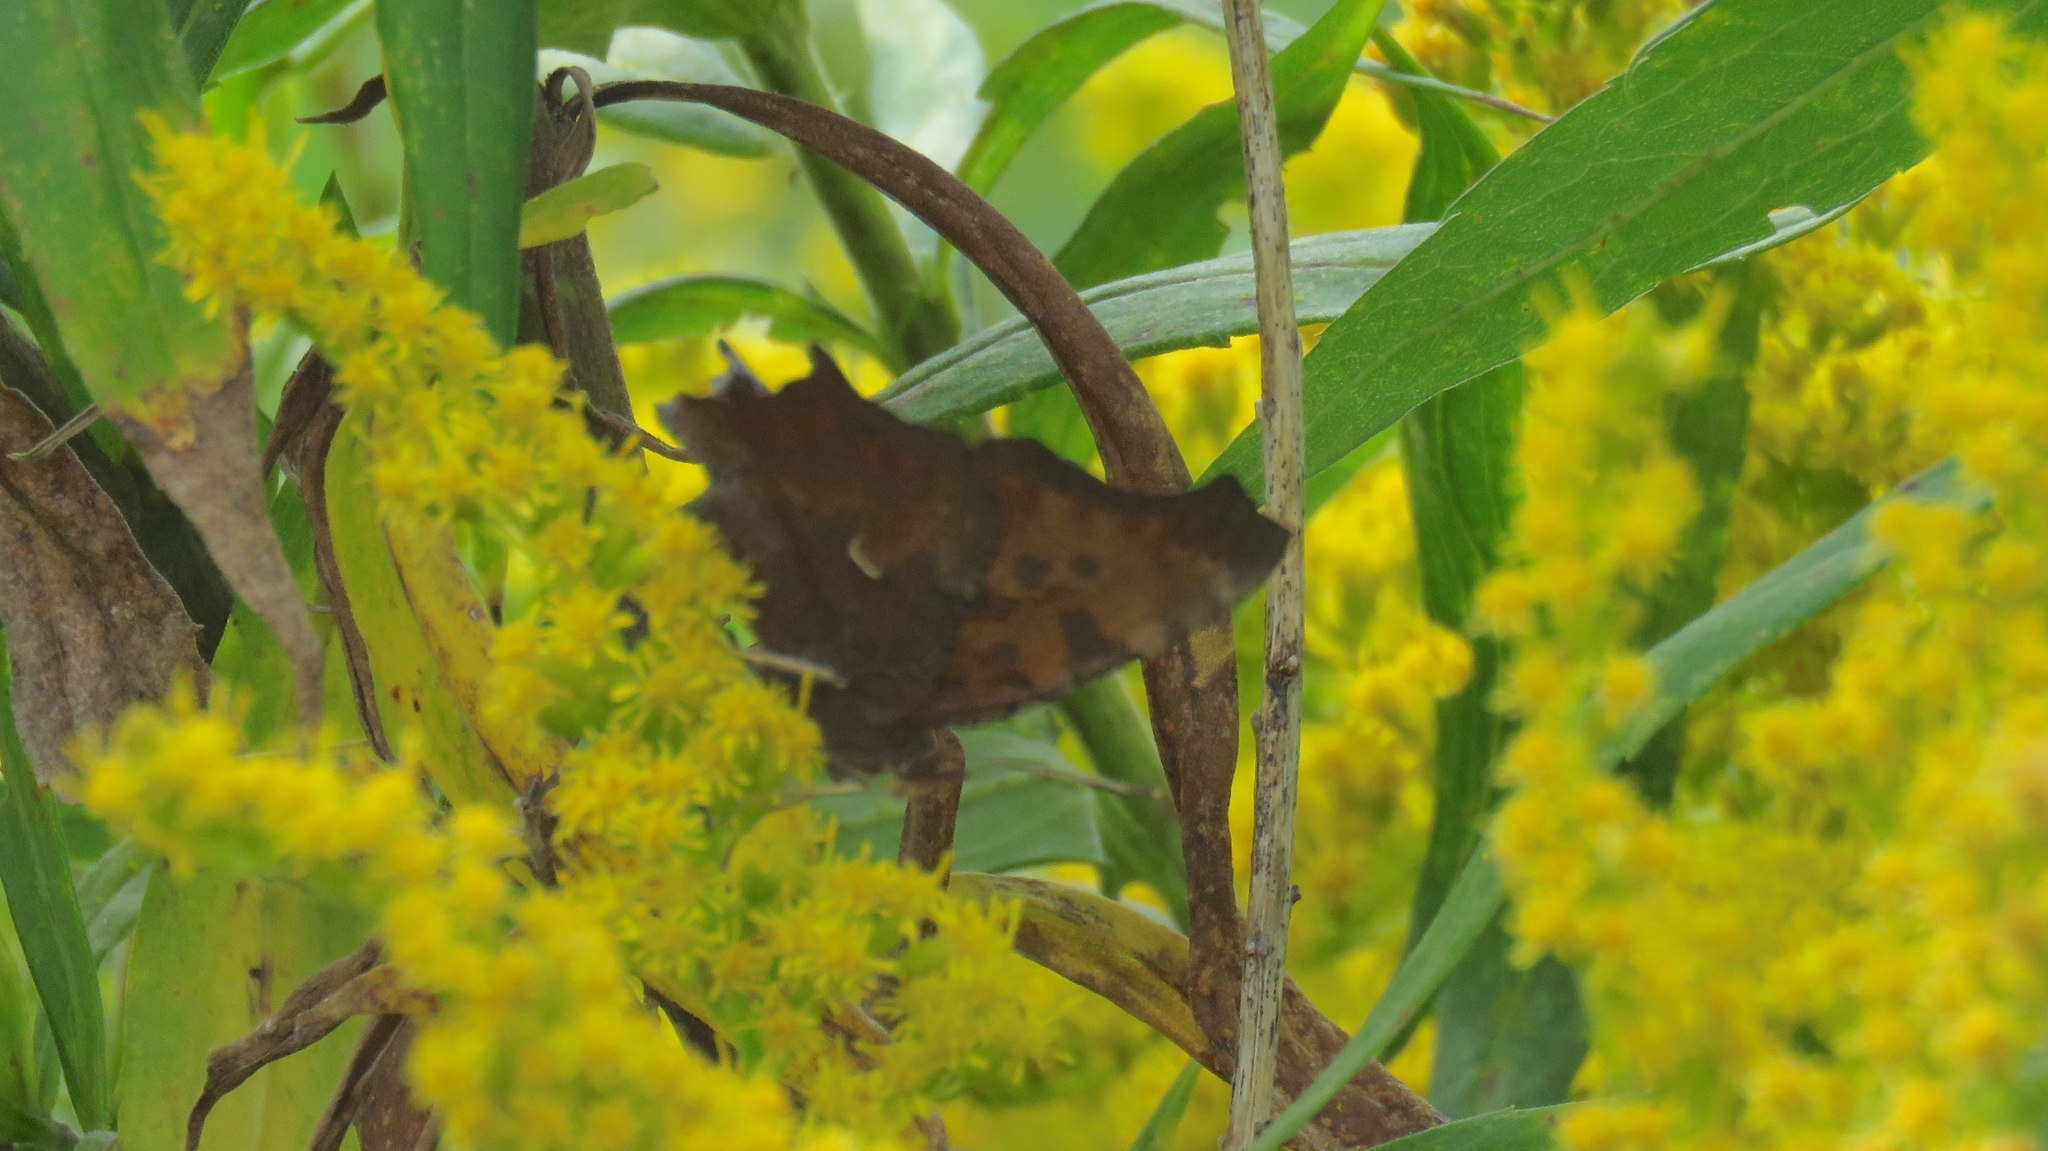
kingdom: Animalia
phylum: Arthropoda
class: Insecta
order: Lepidoptera
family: Nymphalidae
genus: Polygonia
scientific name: Polygonia comma
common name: Eastern comma
